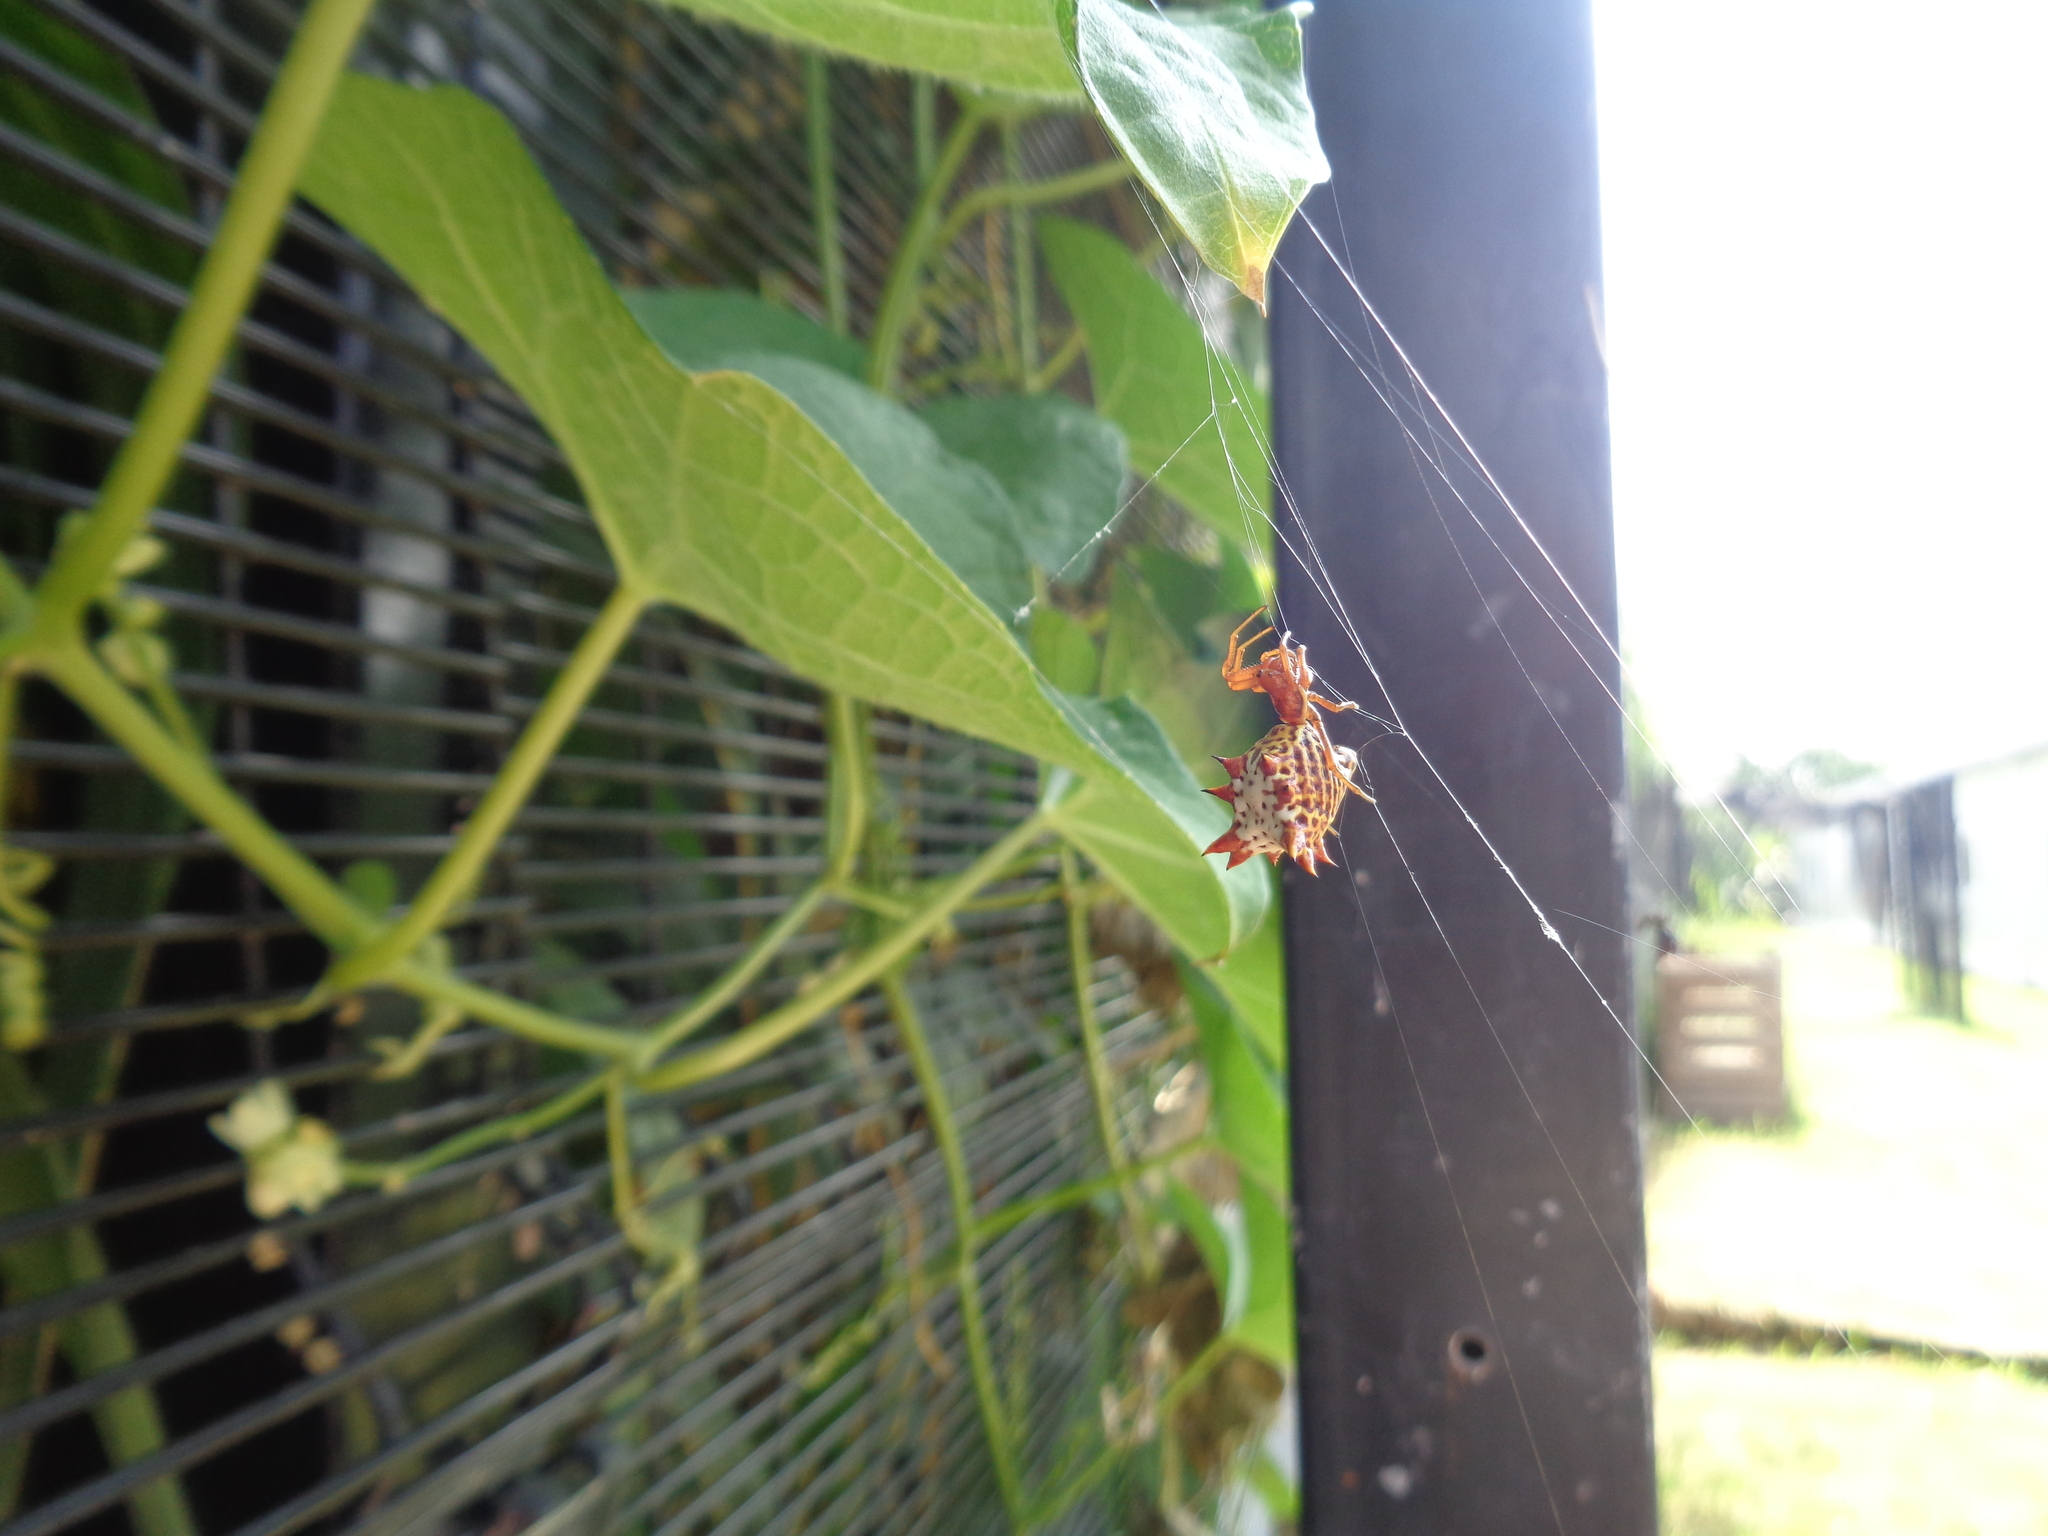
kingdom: Animalia
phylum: Arthropoda
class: Arachnida
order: Araneae
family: Araneidae
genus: Micrathena
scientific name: Micrathena gracilis
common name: Orb weavers
